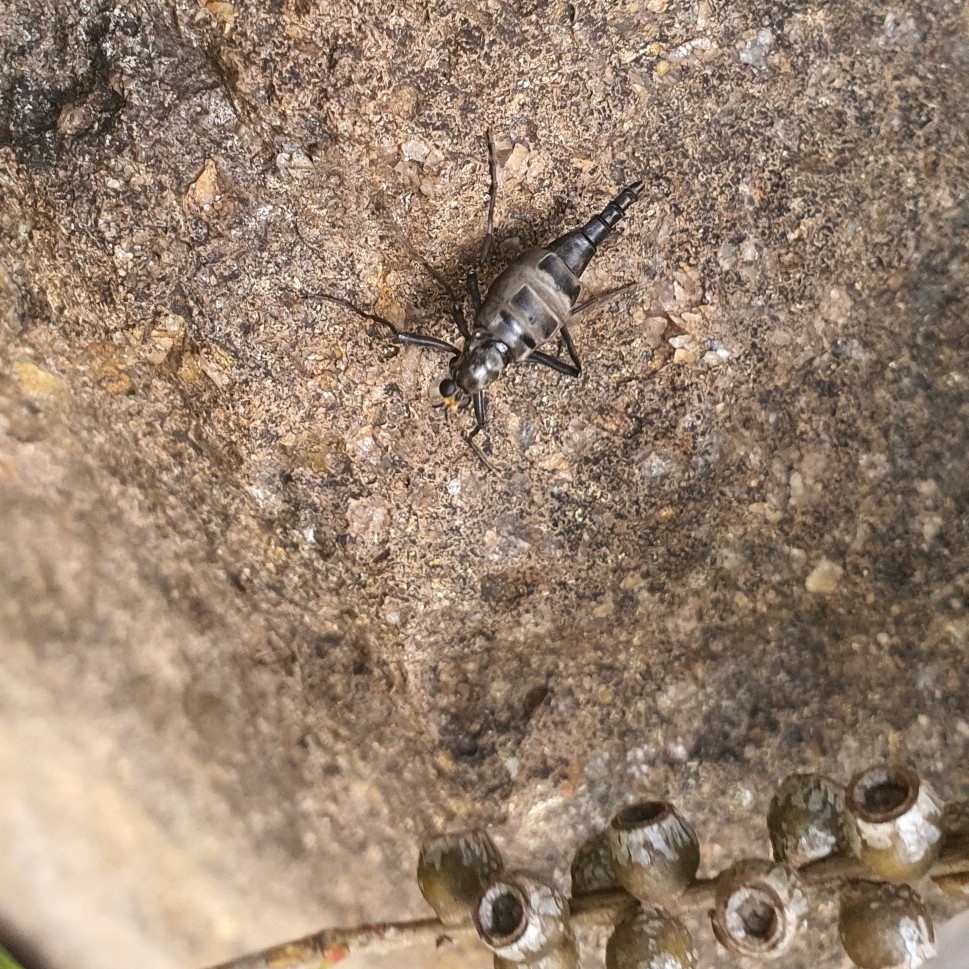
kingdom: Animalia
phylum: Arthropoda
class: Insecta
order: Diptera
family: Stratiomyidae
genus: Boreoides
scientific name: Boreoides subulatus
